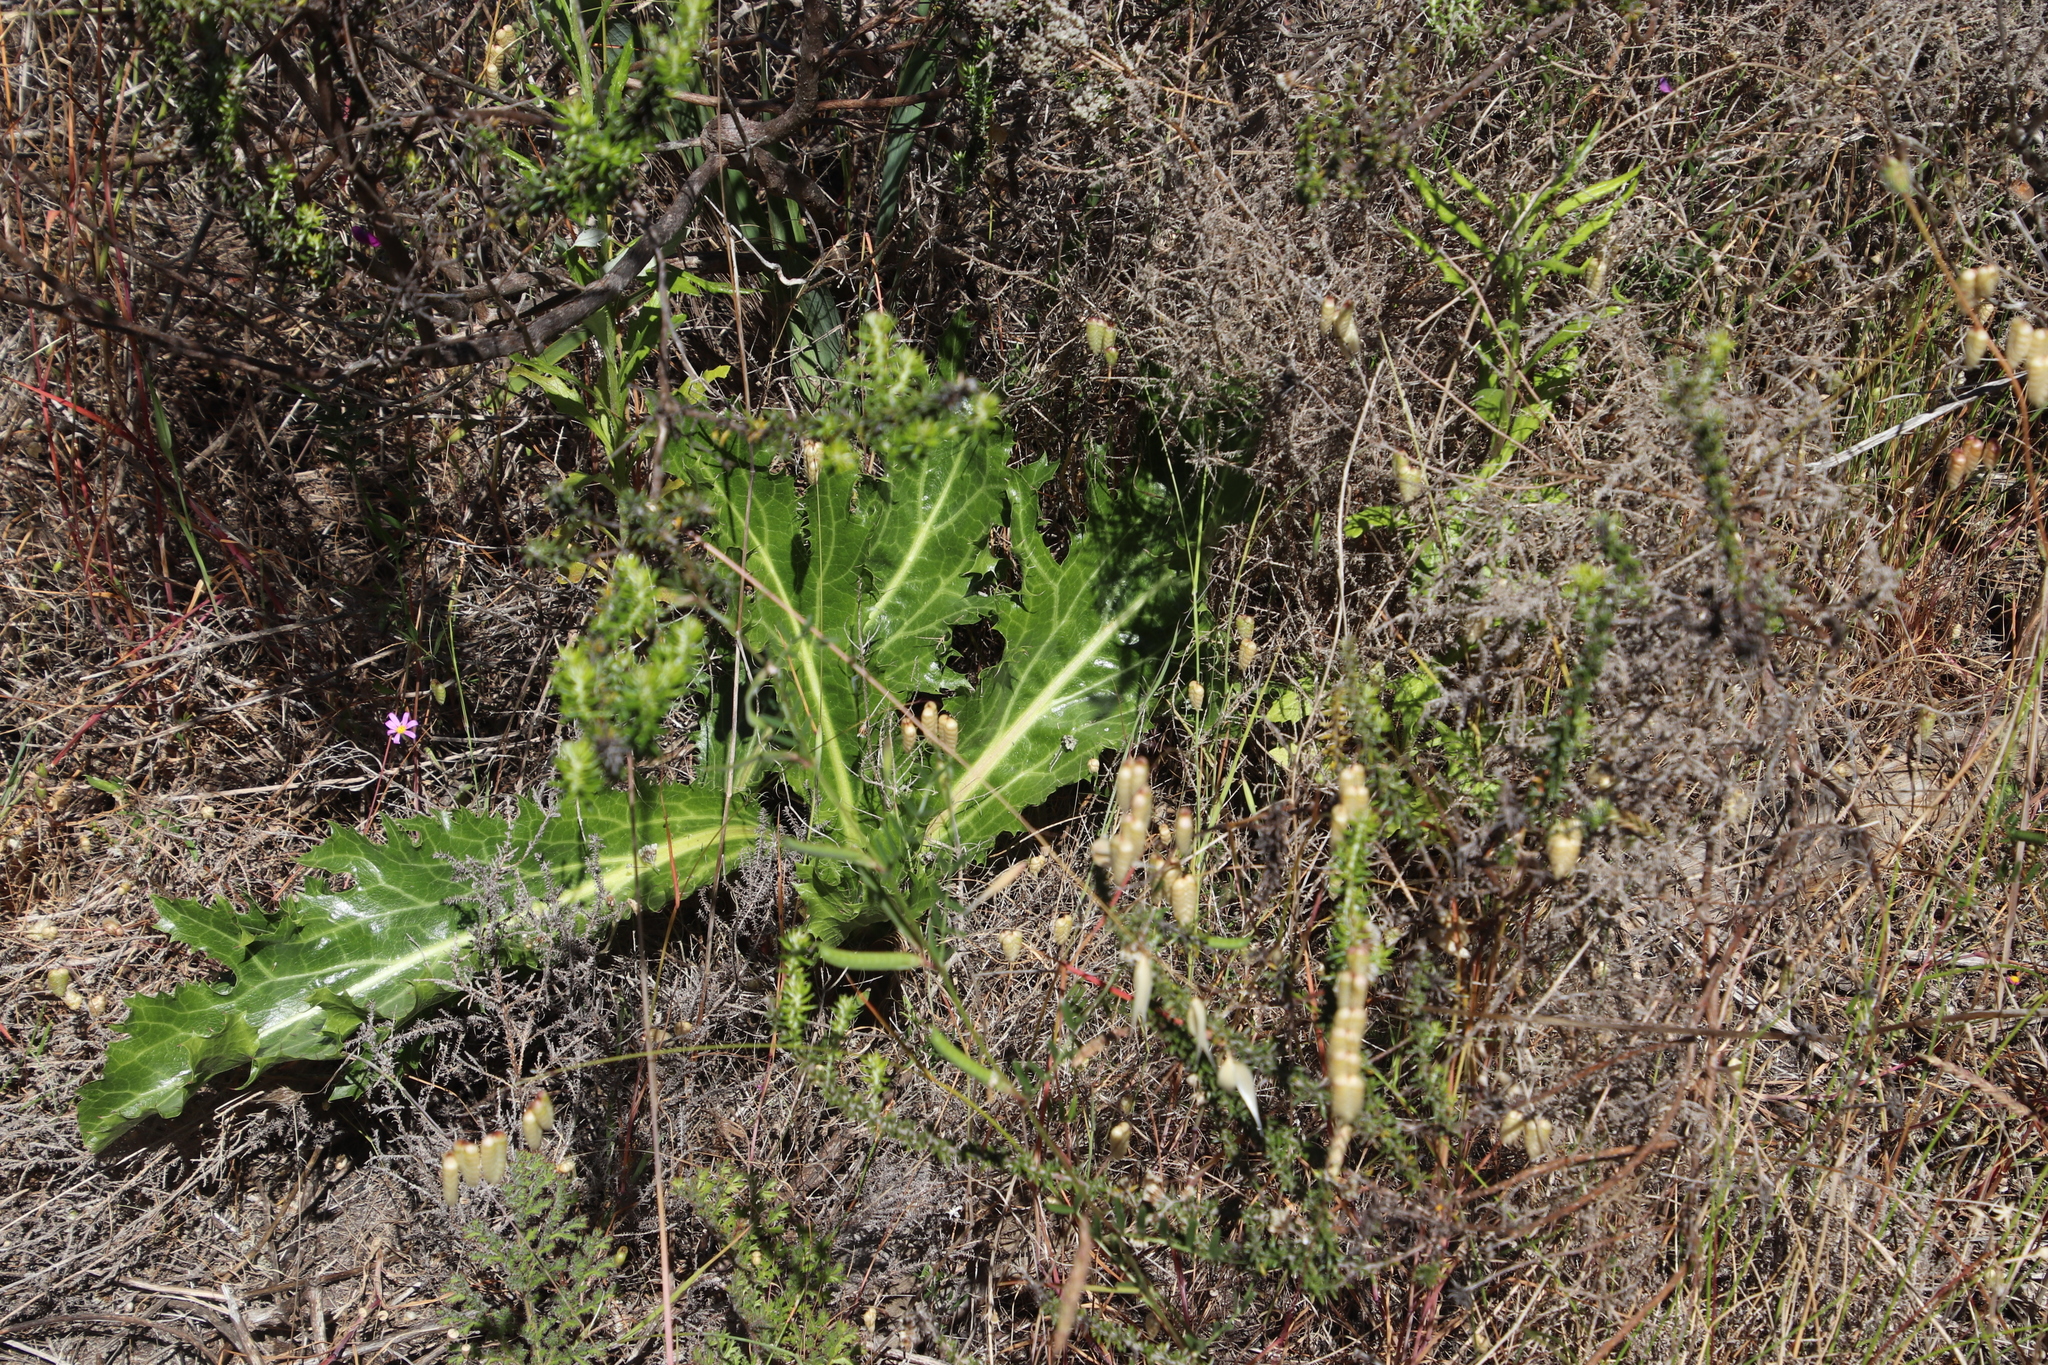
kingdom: Plantae
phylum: Tracheophyta
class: Magnoliopsida
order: Apiales
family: Apiaceae
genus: Lichtensteinia
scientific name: Lichtensteinia lacera
